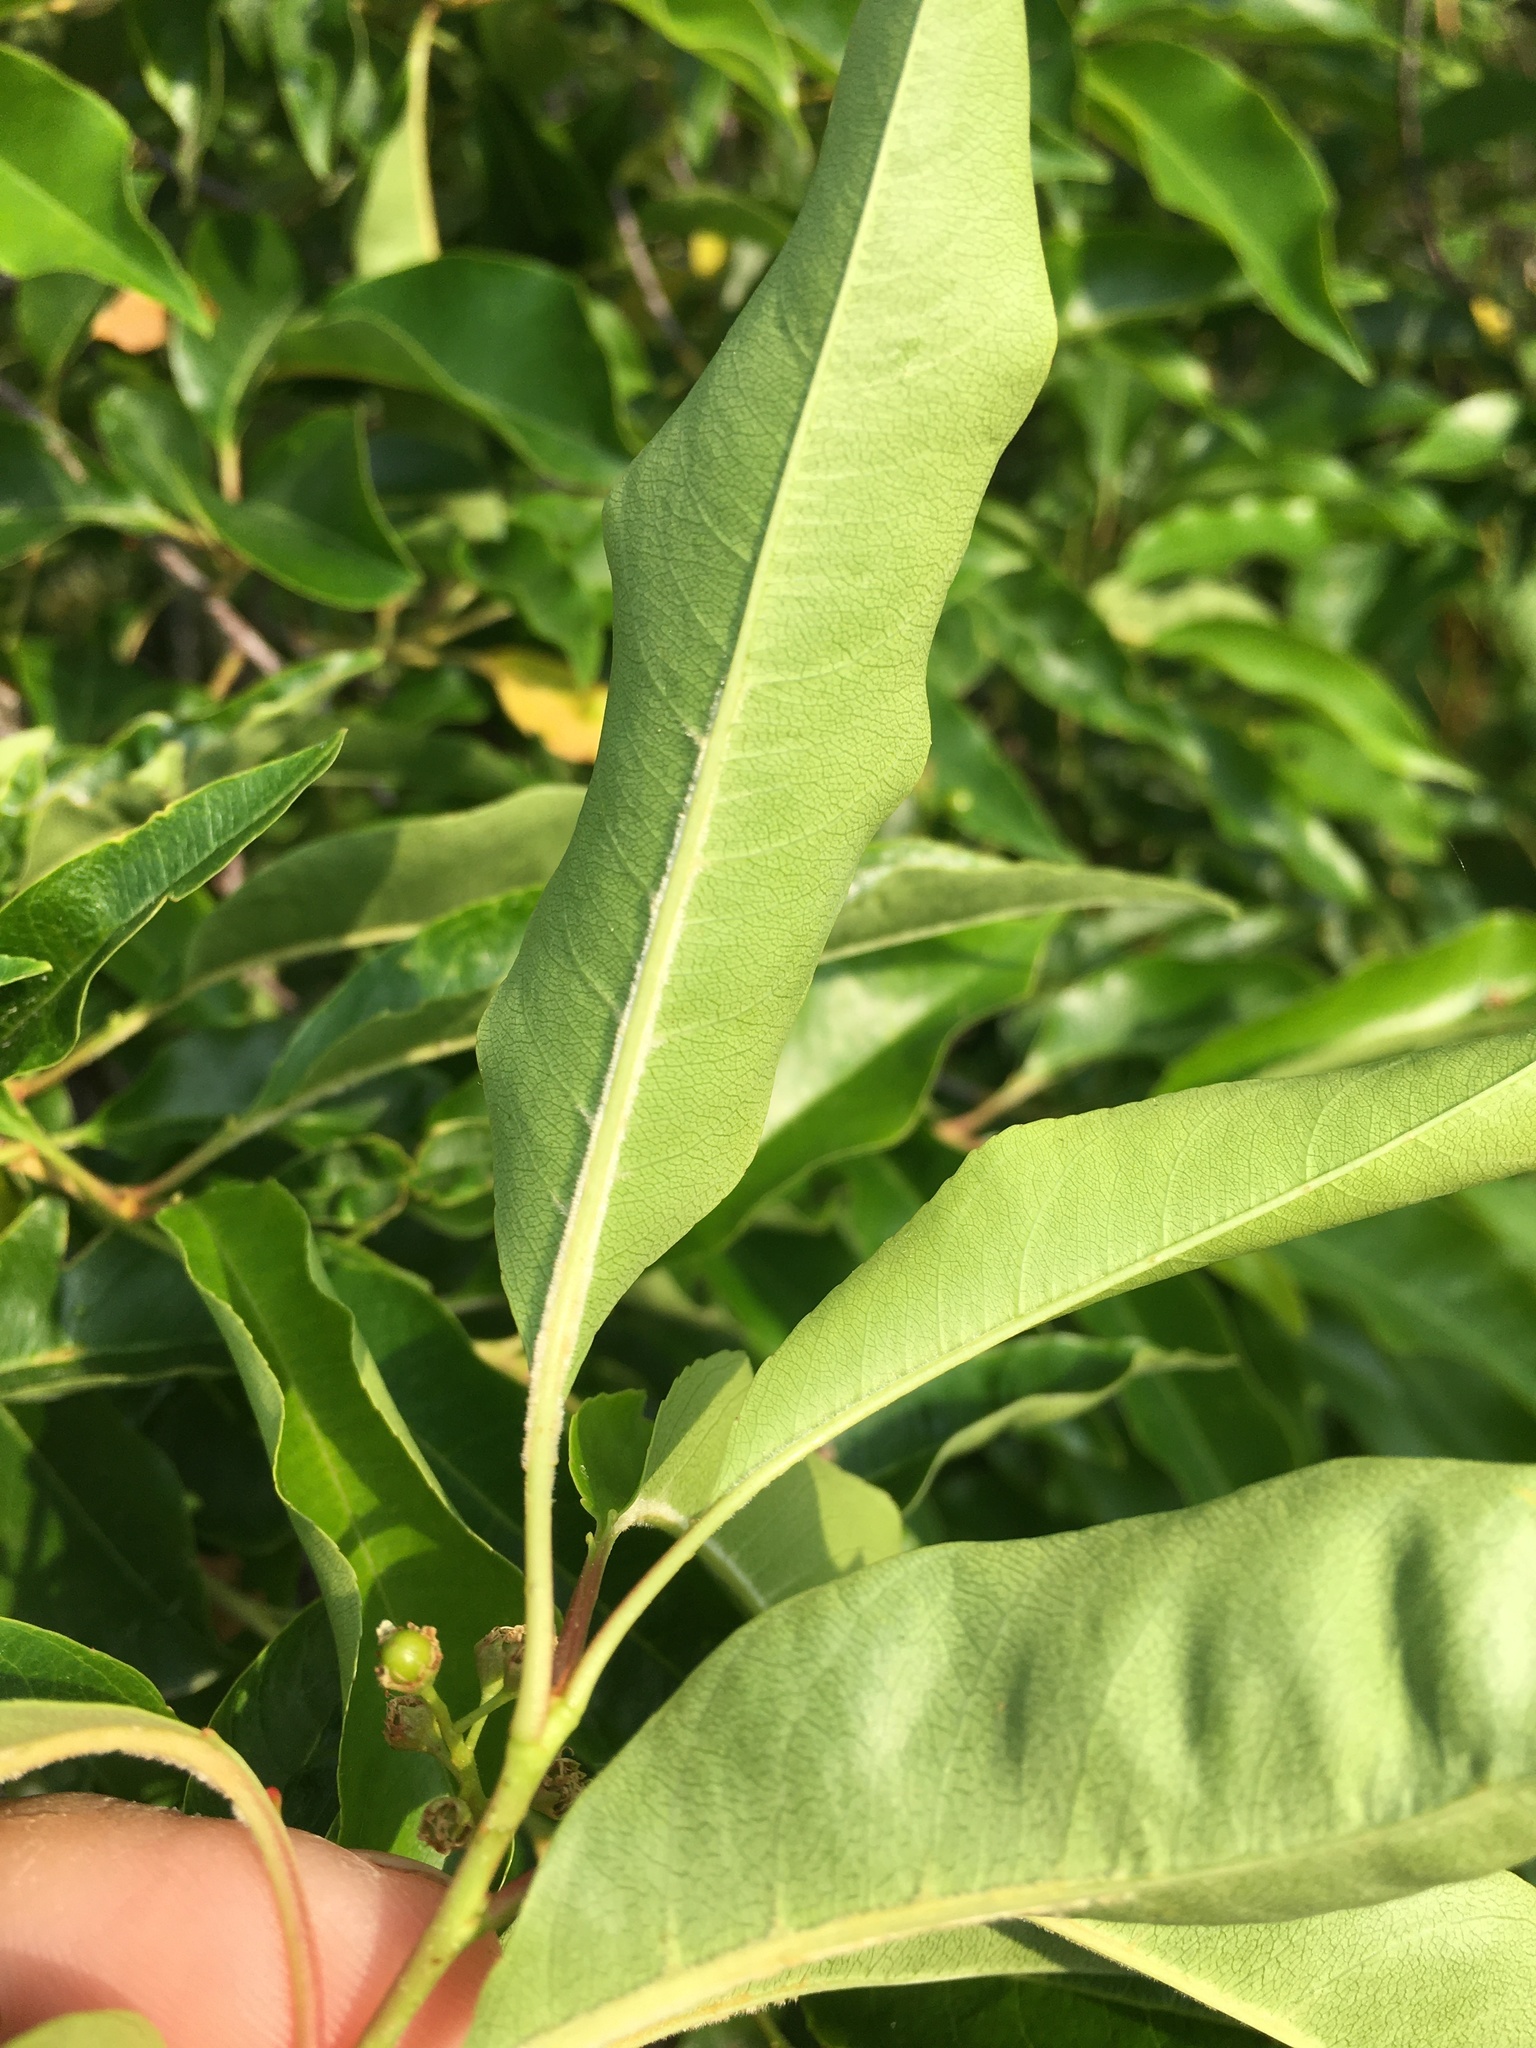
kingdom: Plantae
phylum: Tracheophyta
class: Magnoliopsida
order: Rosales
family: Rosaceae
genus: Prunus
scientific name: Prunus serotina
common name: Black cherry
